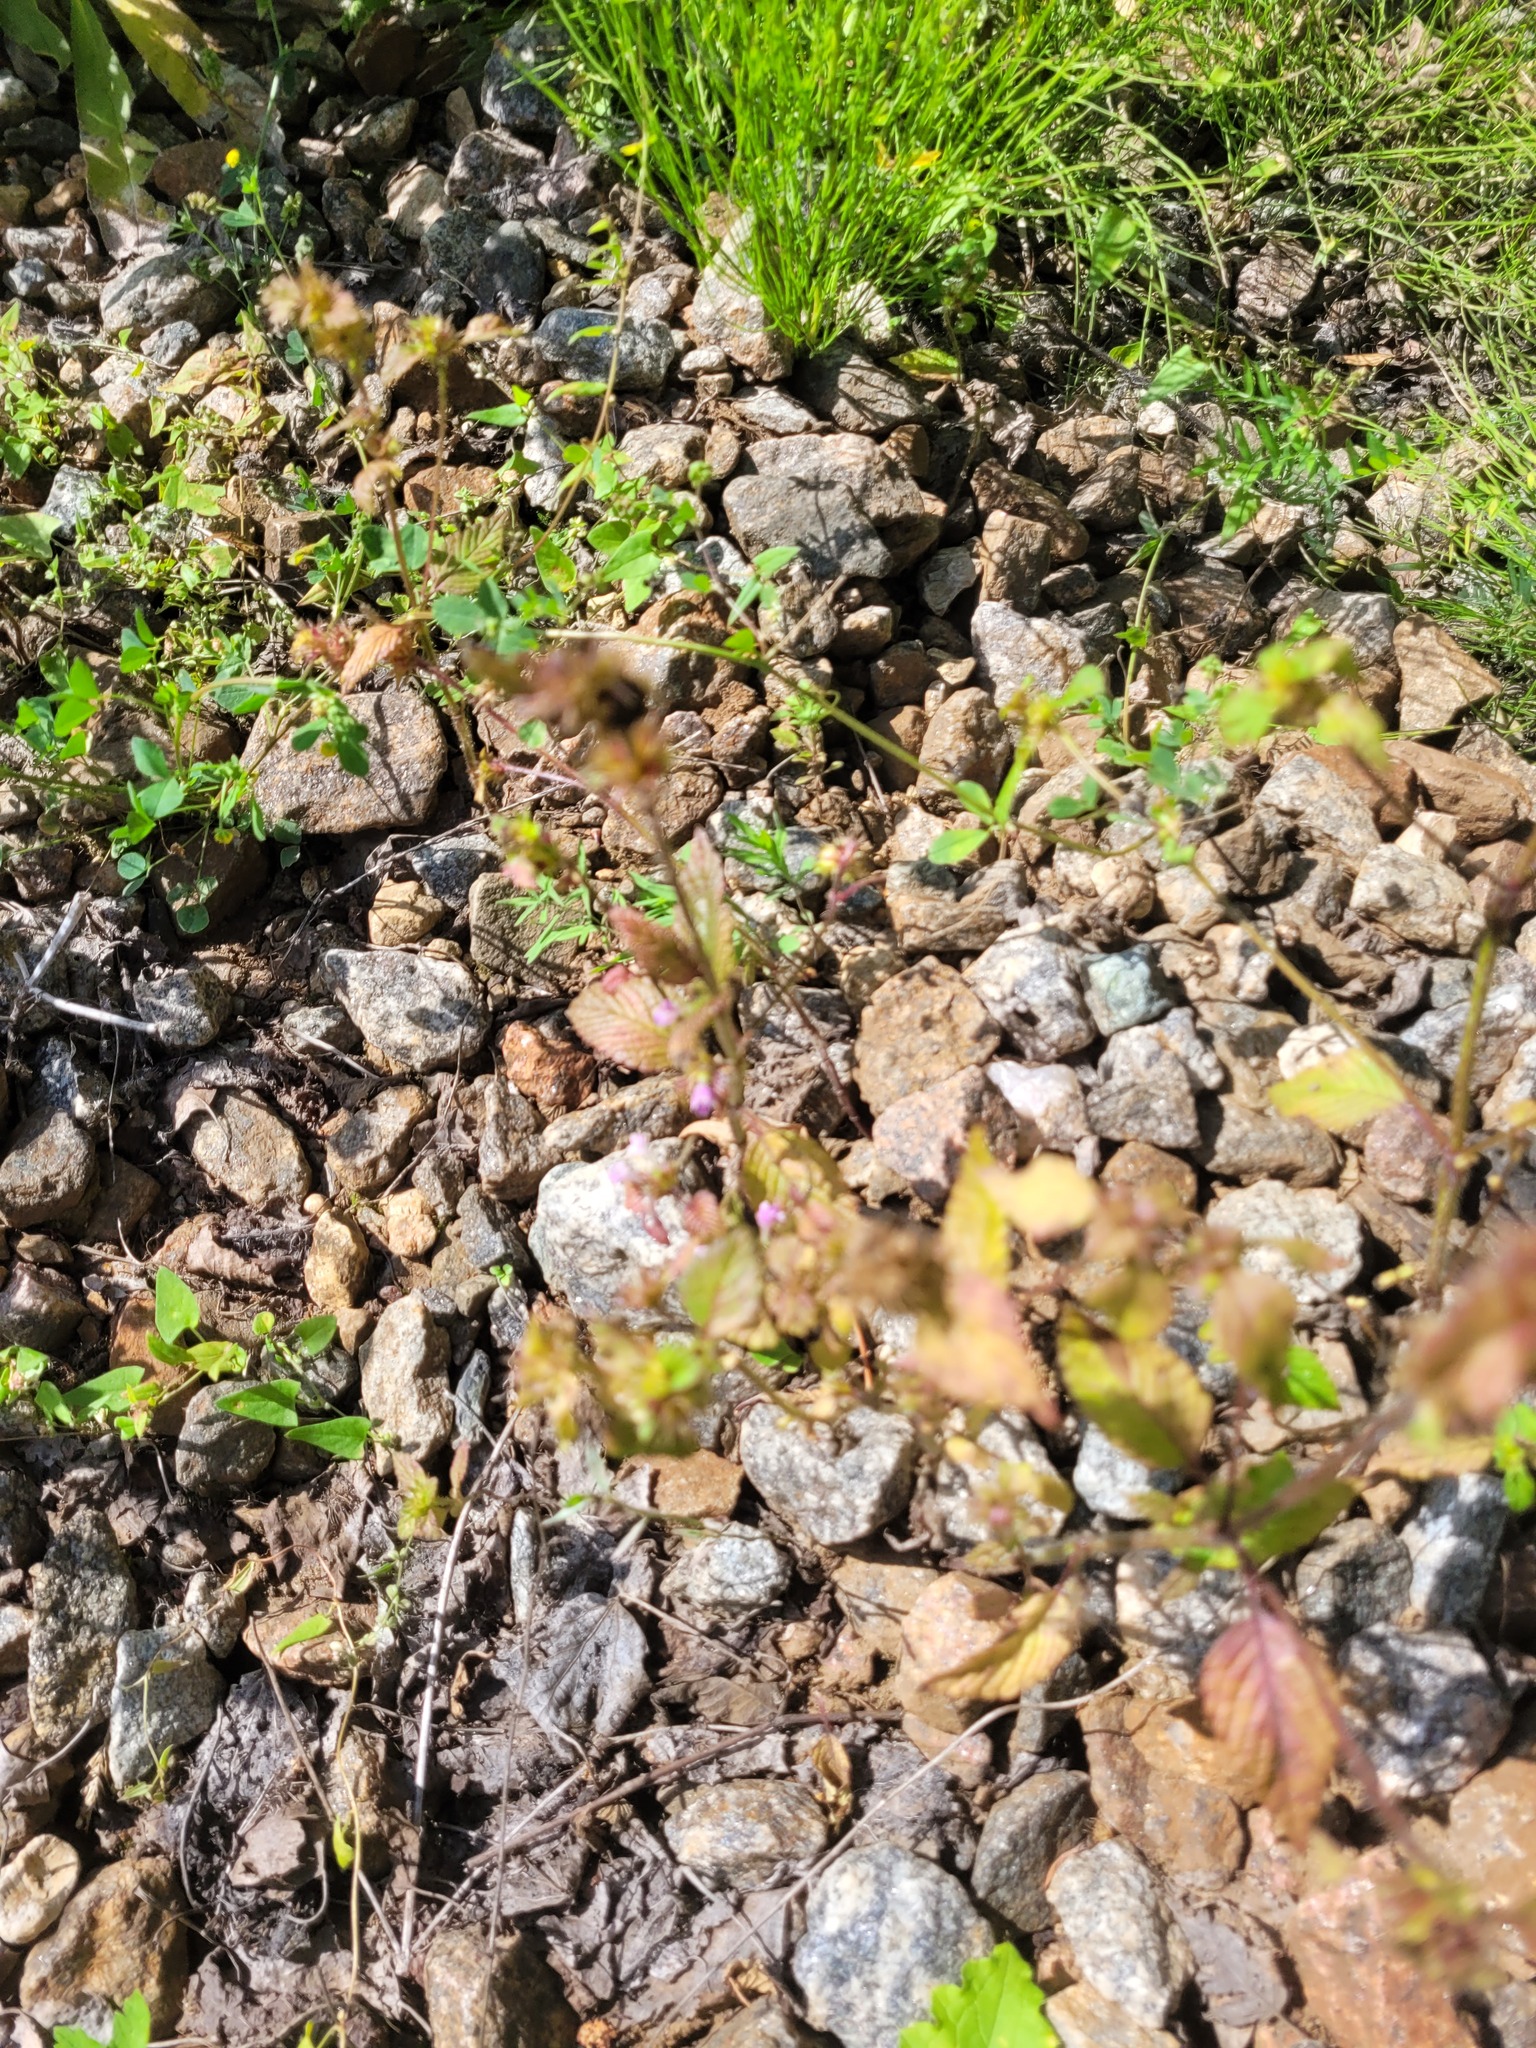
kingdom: Plantae
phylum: Tracheophyta
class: Magnoliopsida
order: Lamiales
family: Lamiaceae
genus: Galeopsis
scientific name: Galeopsis bifida
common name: Bifid hemp-nettle
